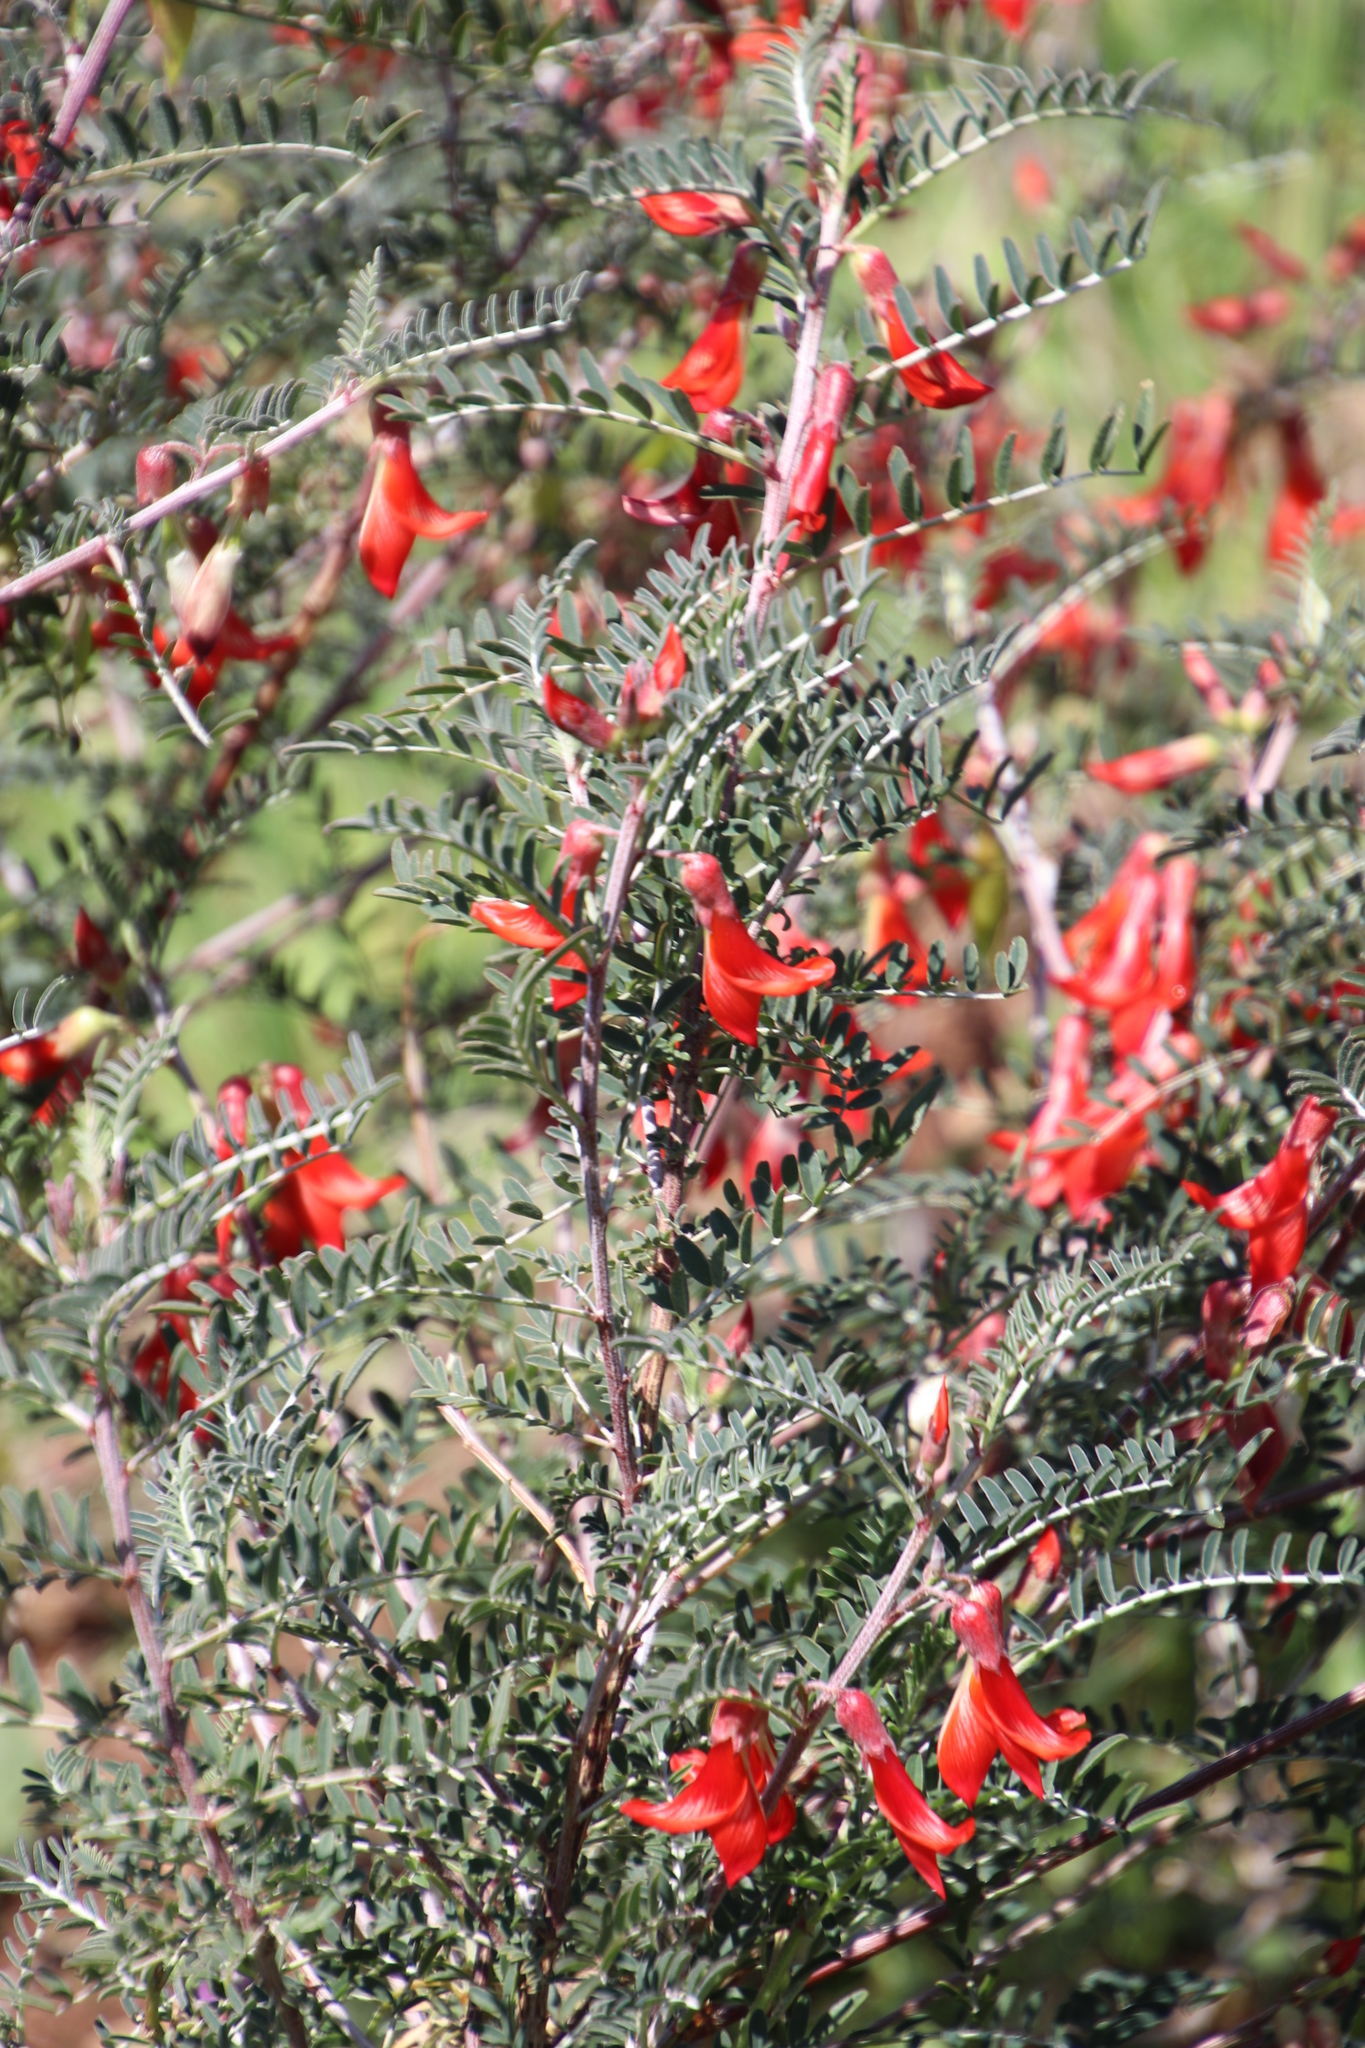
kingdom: Plantae
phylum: Tracheophyta
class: Magnoliopsida
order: Fabales
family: Fabaceae
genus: Lessertia
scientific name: Lessertia frutescens
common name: Balloon-pea
